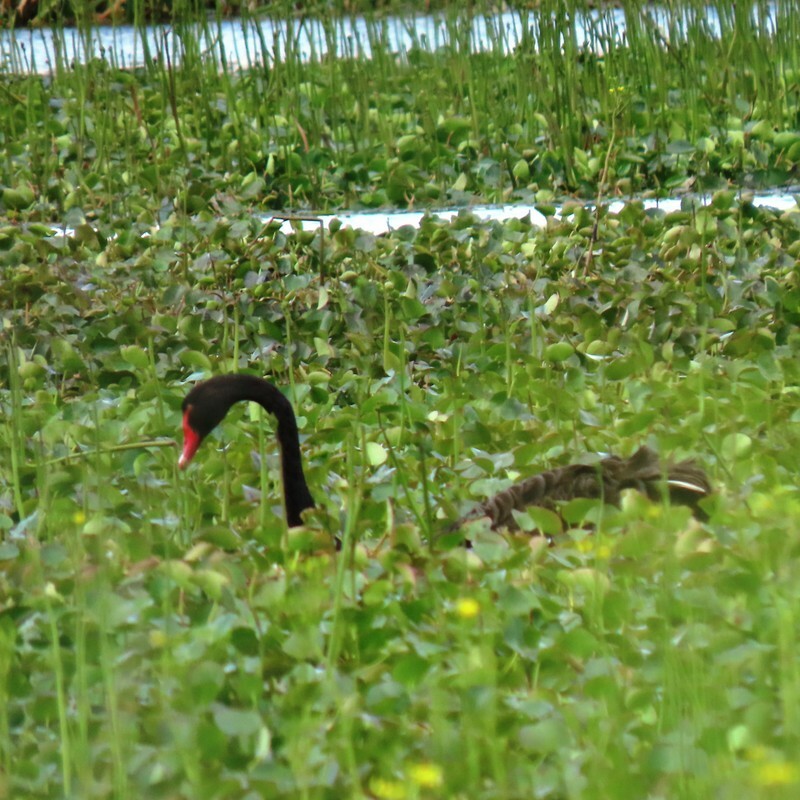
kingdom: Animalia
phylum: Chordata
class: Aves
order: Anseriformes
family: Anatidae
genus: Cygnus
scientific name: Cygnus atratus
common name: Black swan
